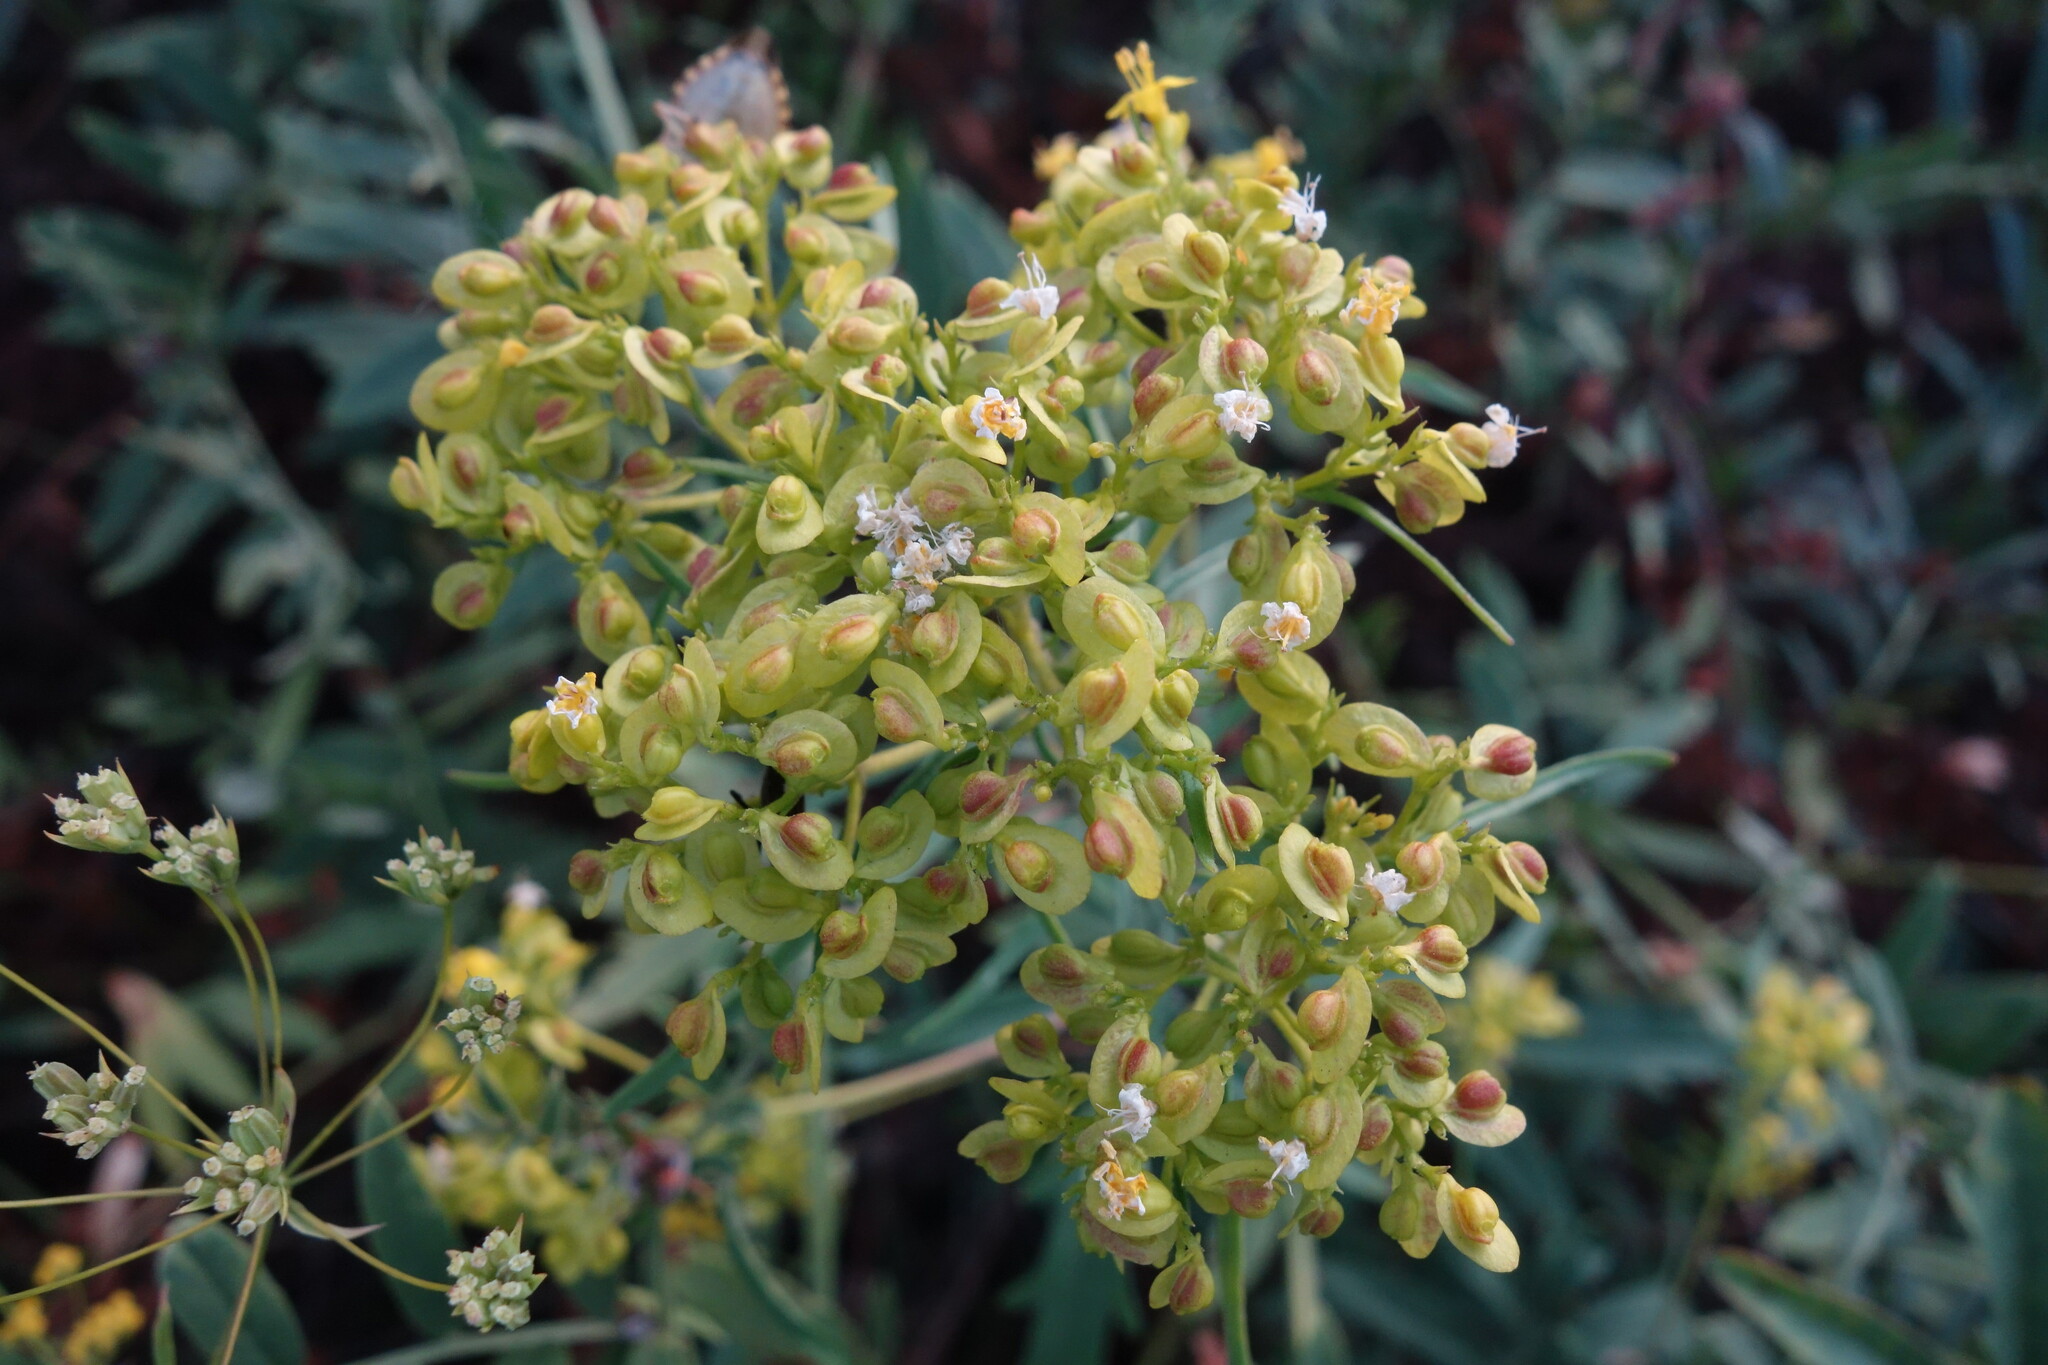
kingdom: Plantae
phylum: Tracheophyta
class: Magnoliopsida
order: Dipsacales
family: Caprifoliaceae
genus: Patrinia
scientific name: Patrinia rupestris
